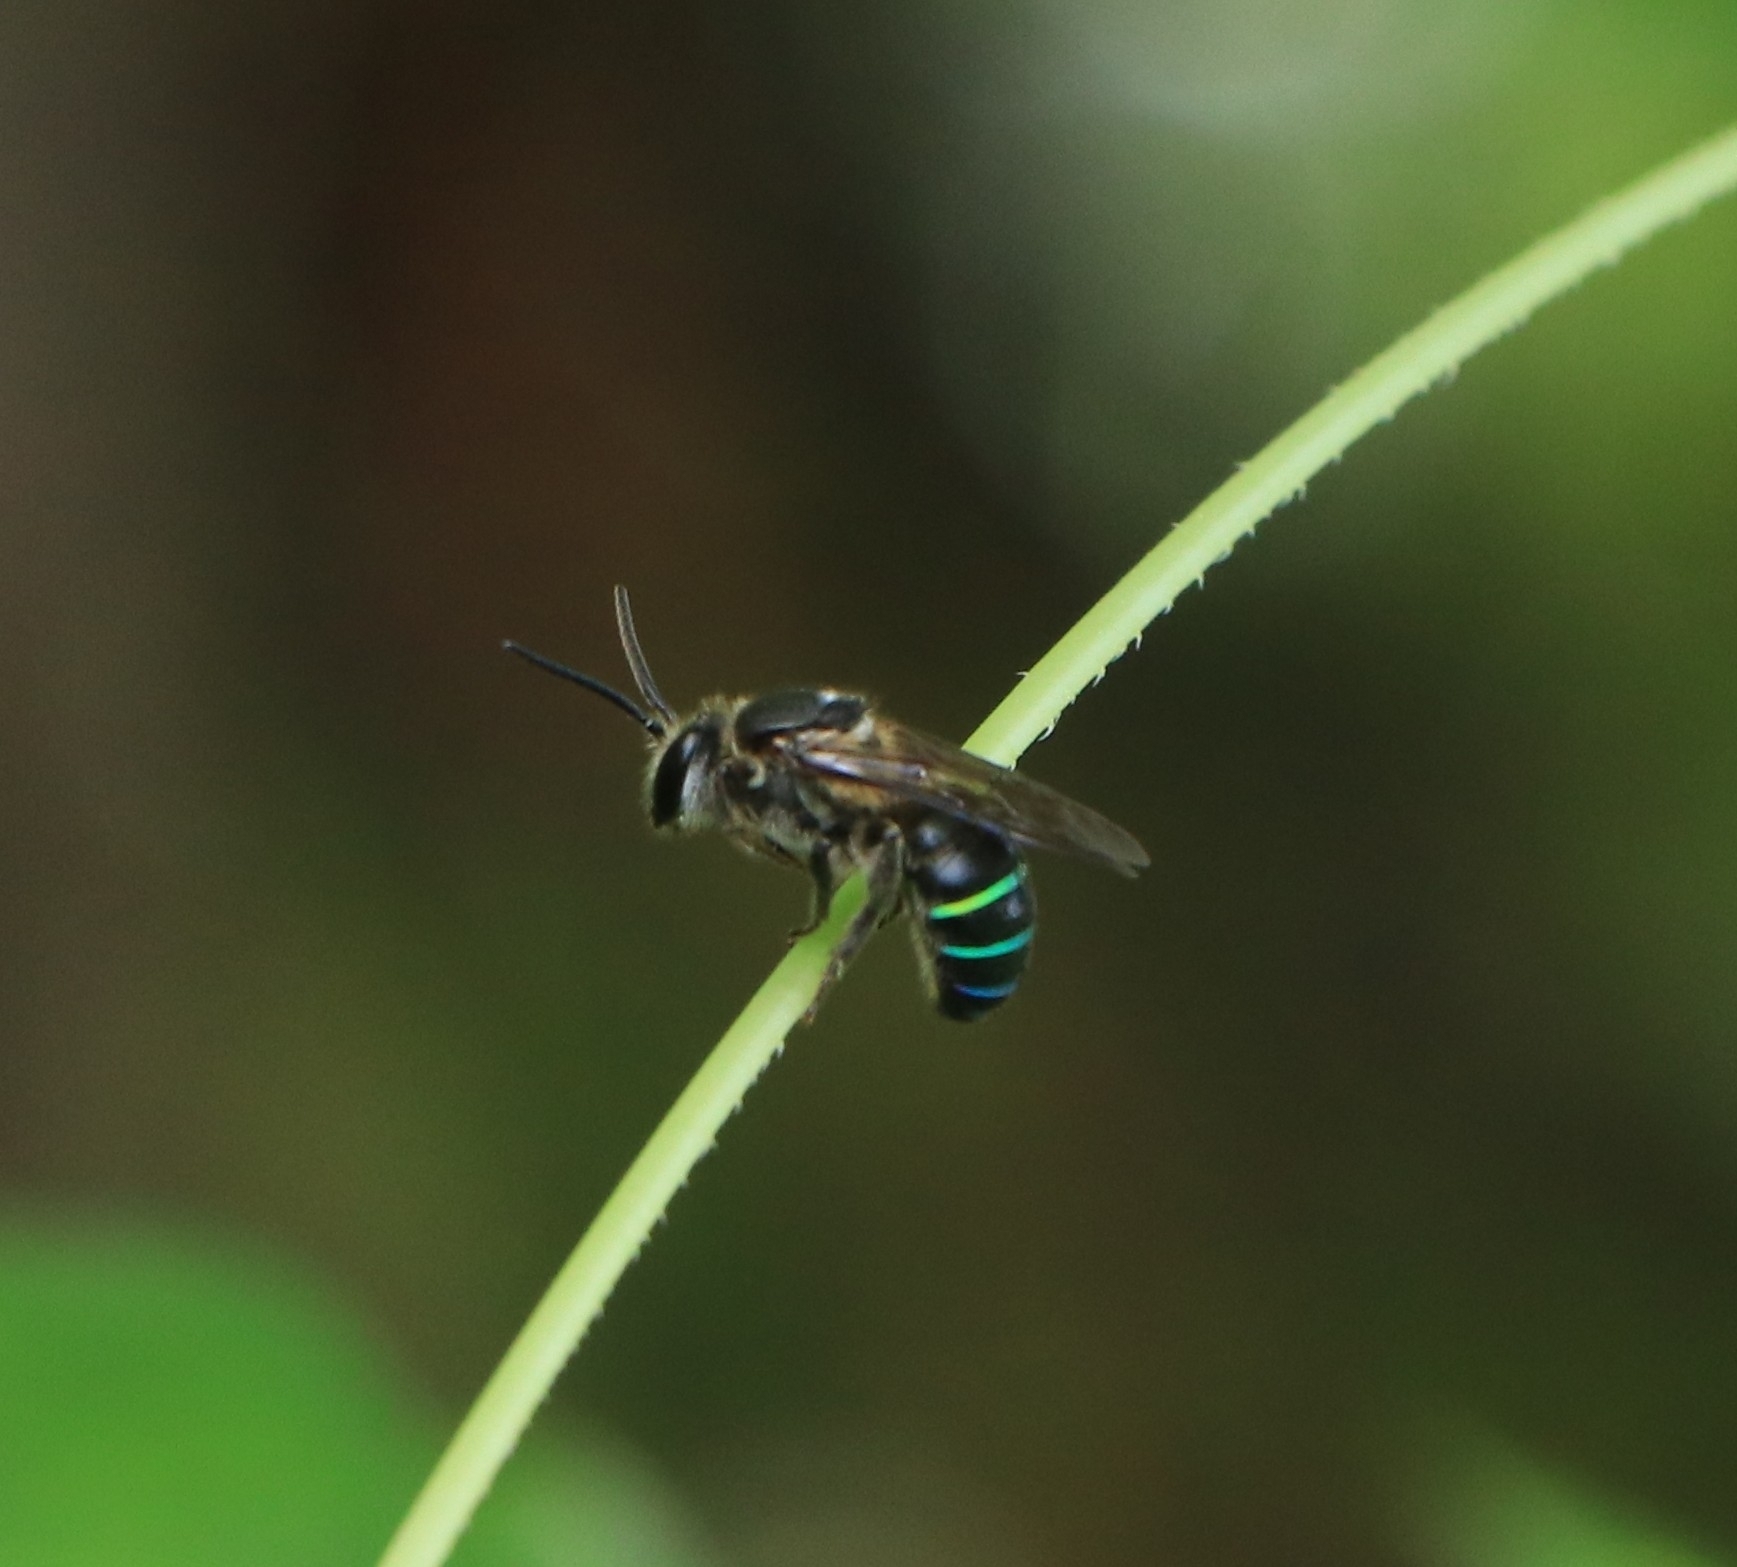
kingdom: Animalia
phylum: Arthropoda
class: Insecta
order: Hymenoptera
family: Halictidae
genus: Nomia
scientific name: Nomia iridescens
